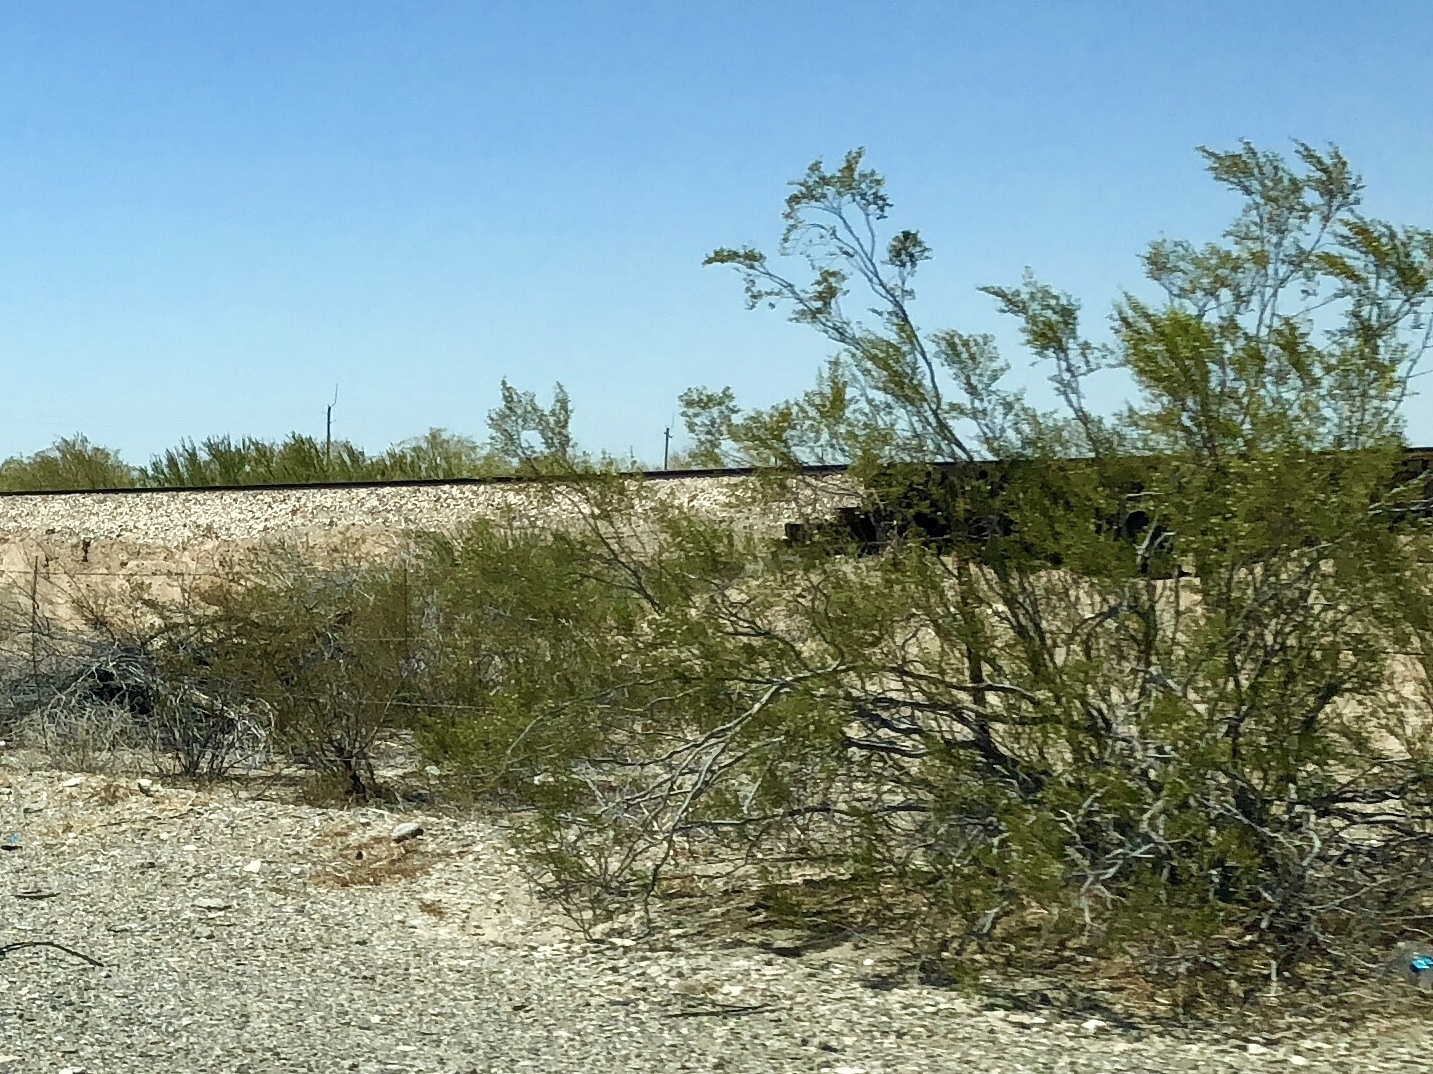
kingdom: Plantae
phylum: Tracheophyta
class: Magnoliopsida
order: Zygophyllales
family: Zygophyllaceae
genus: Larrea
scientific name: Larrea tridentata
